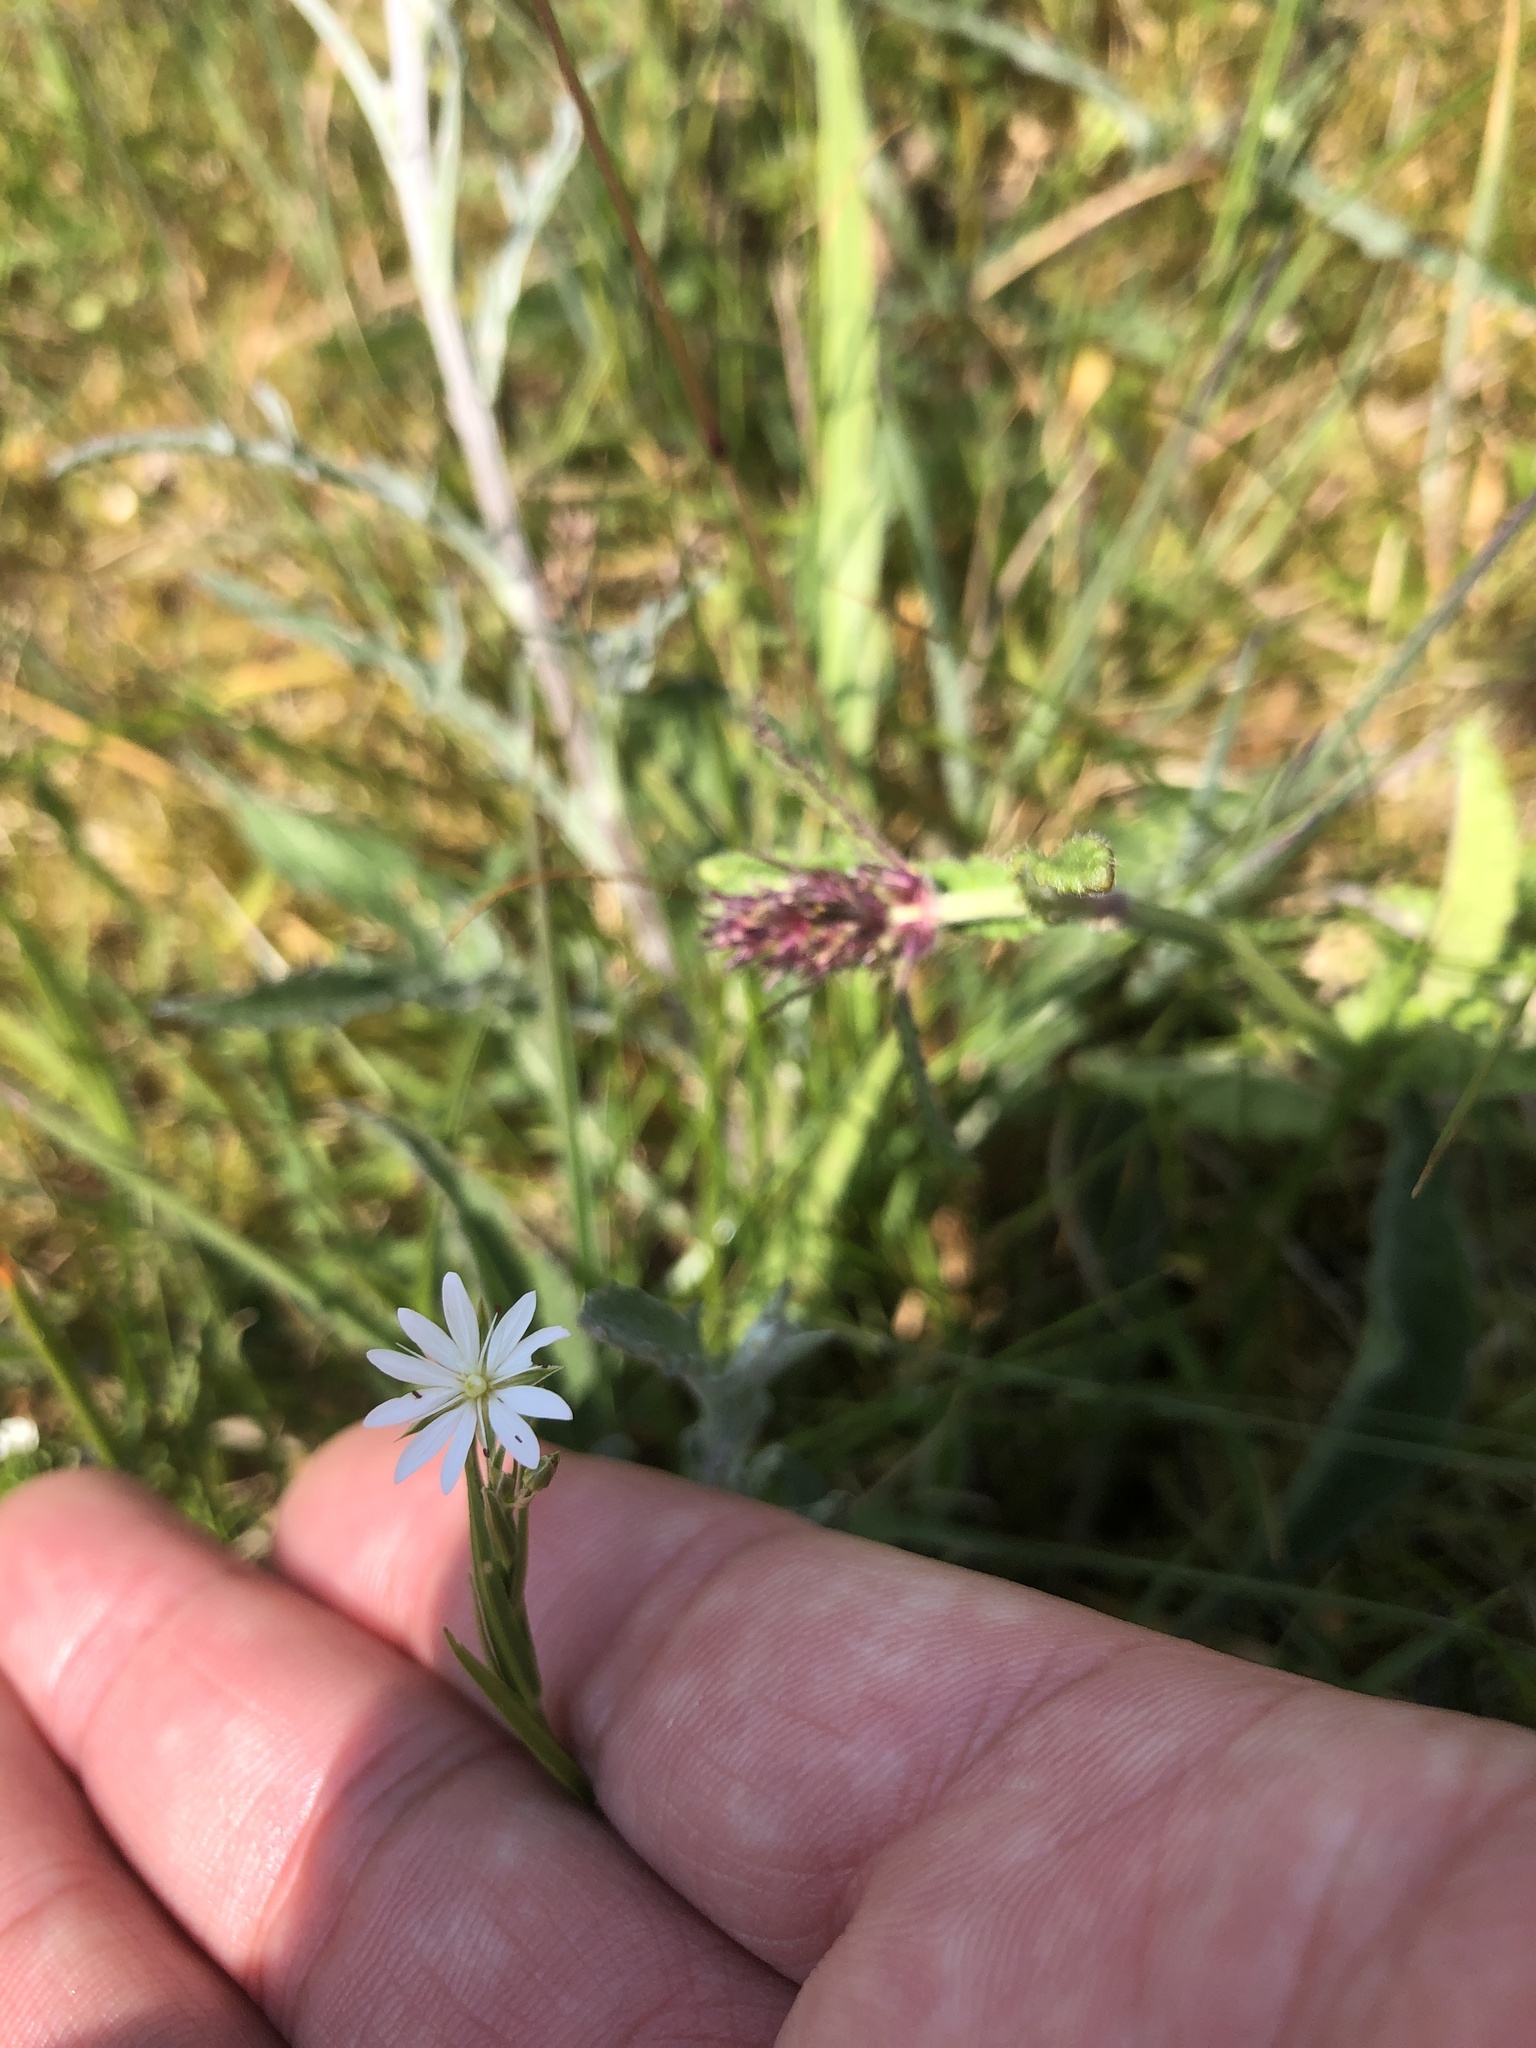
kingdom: Plantae
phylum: Tracheophyta
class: Magnoliopsida
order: Caryophyllales
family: Caryophyllaceae
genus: Stellaria
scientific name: Stellaria graminea
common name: Grass-like starwort
